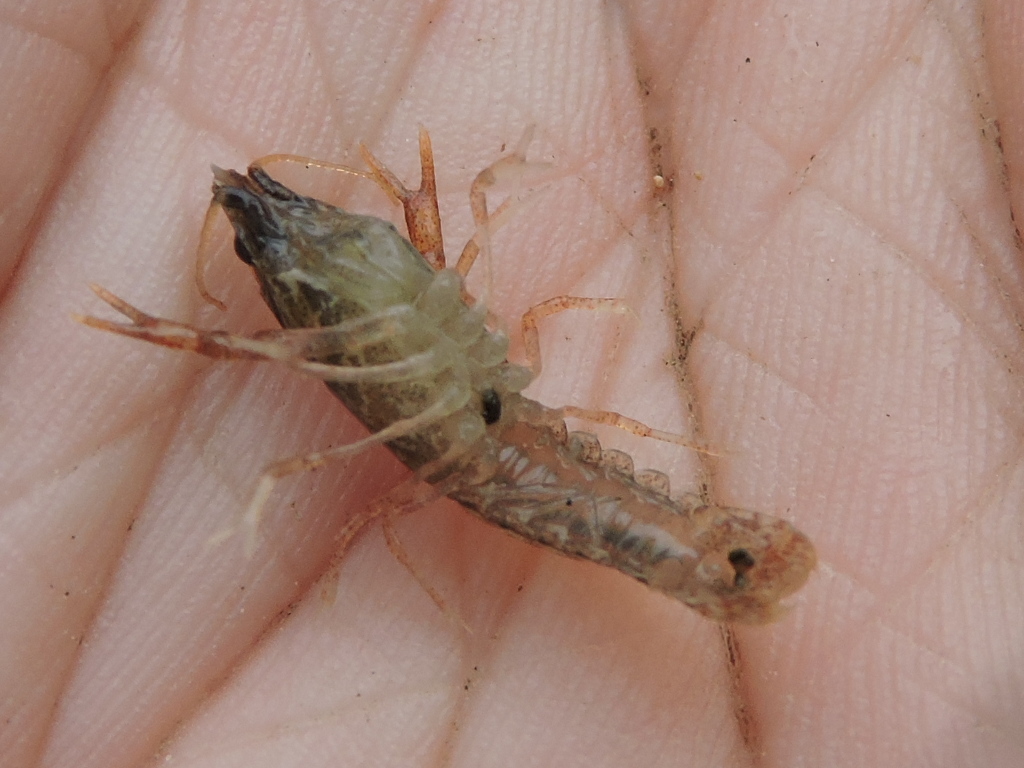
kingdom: Animalia
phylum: Arthropoda
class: Malacostraca
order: Decapoda
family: Cambaridae
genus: Procambarus
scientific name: Procambarus simulans
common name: Southern plains crayfish
